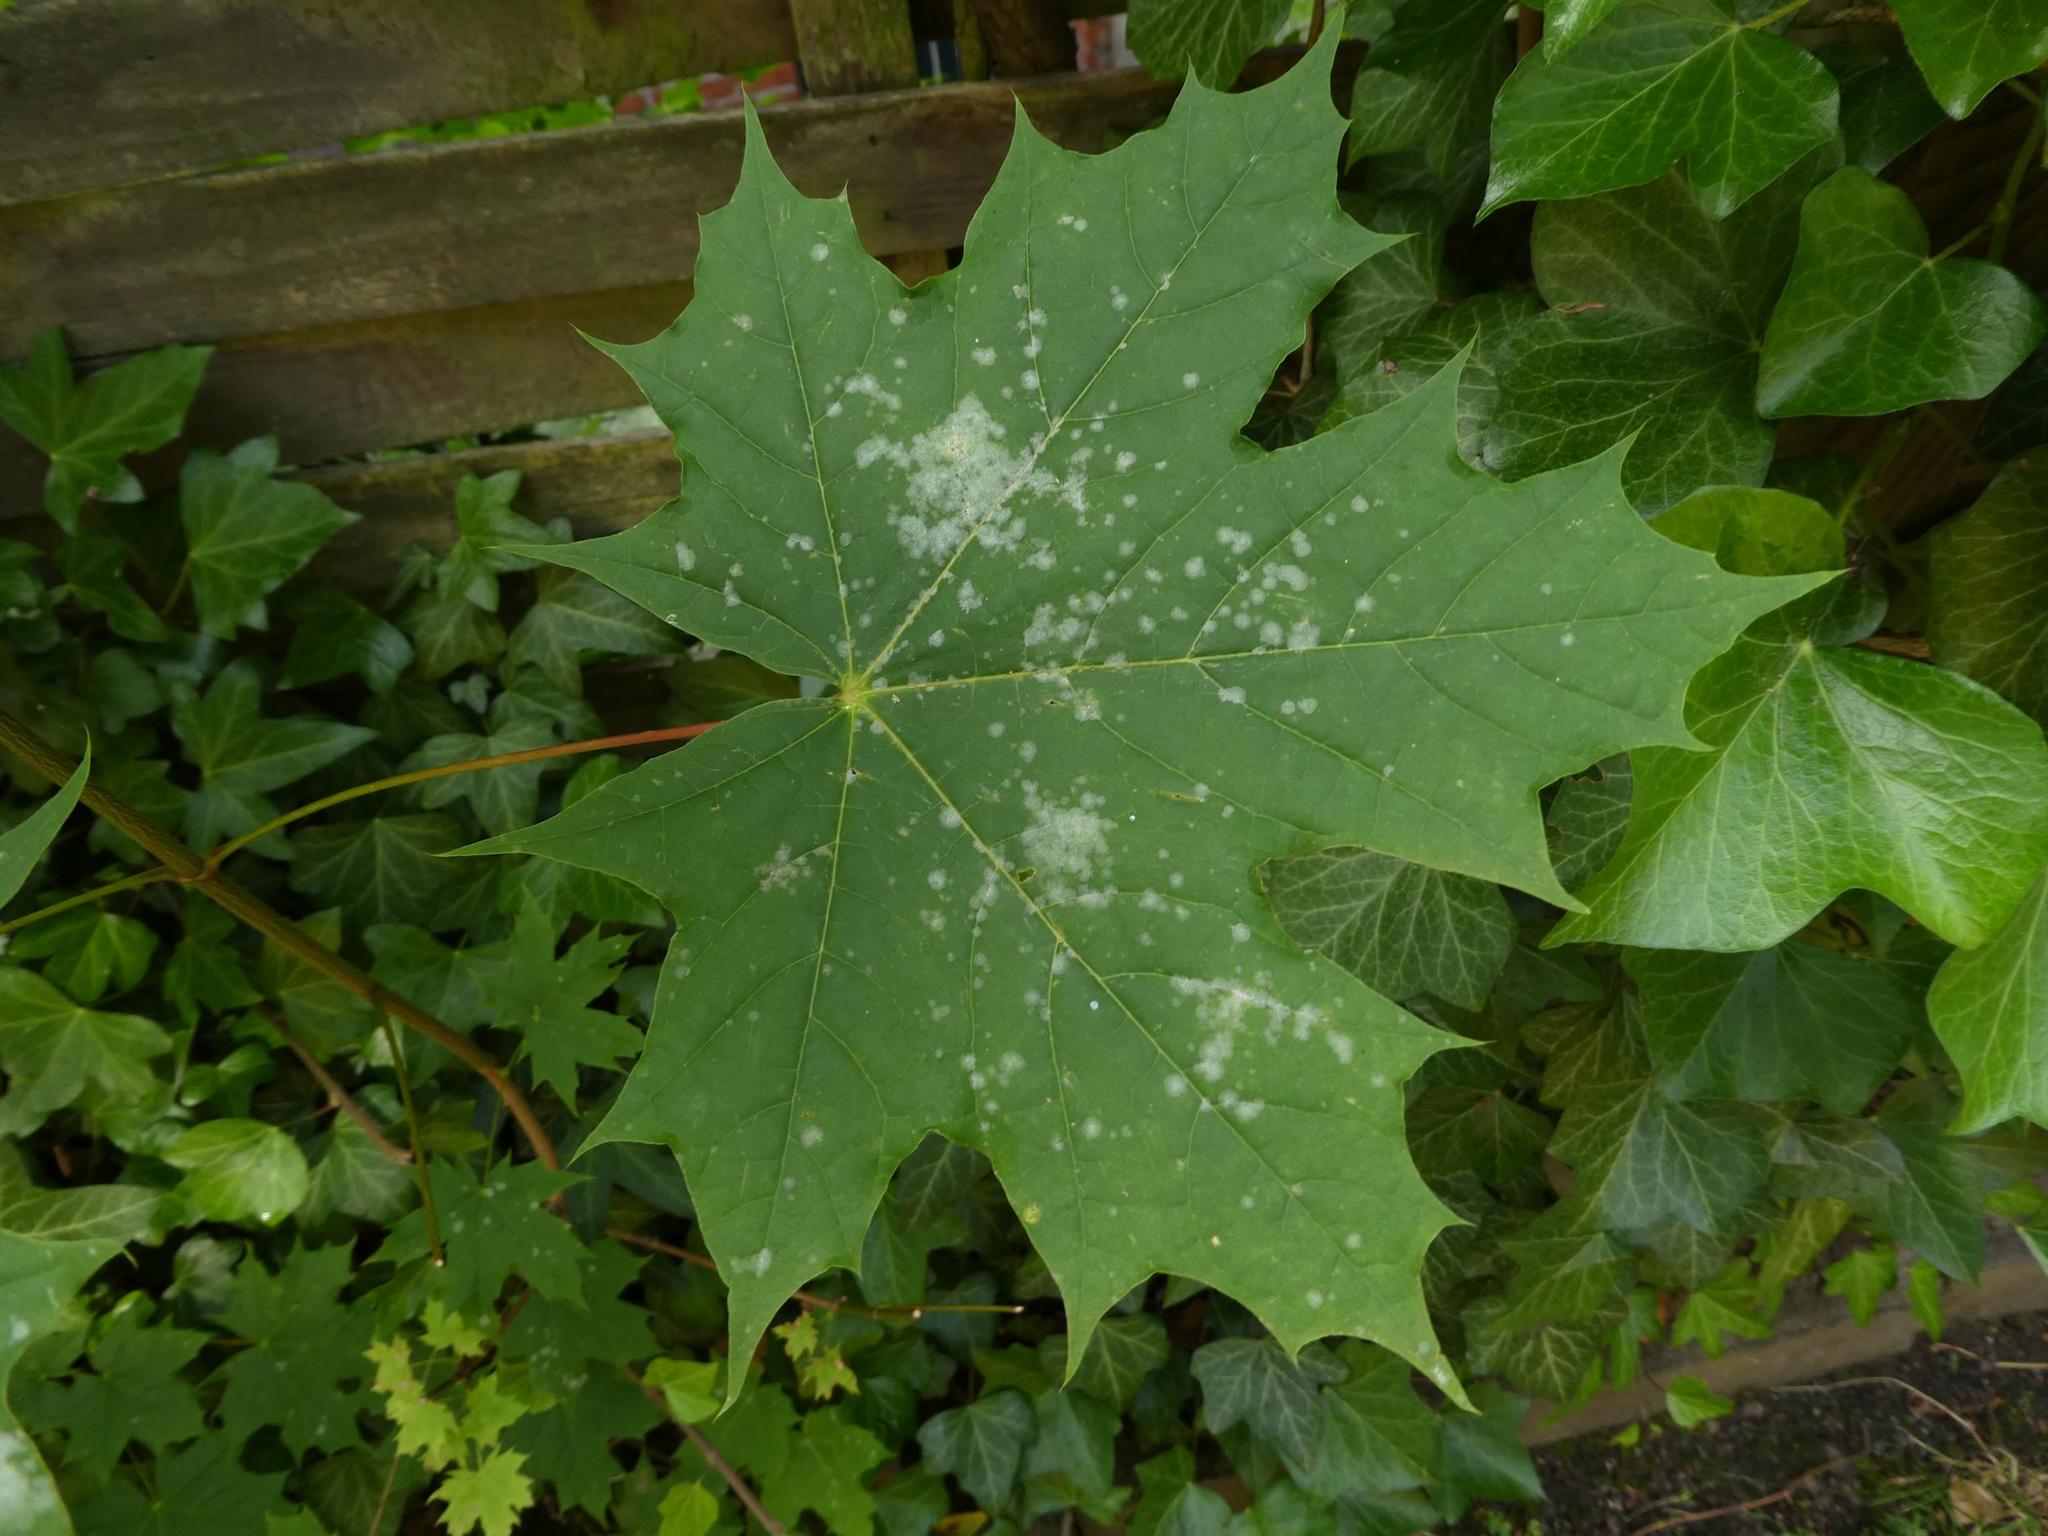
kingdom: Plantae
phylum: Tracheophyta
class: Magnoliopsida
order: Sapindales
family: Sapindaceae
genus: Acer
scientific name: Acer platanoides
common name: Norway maple
